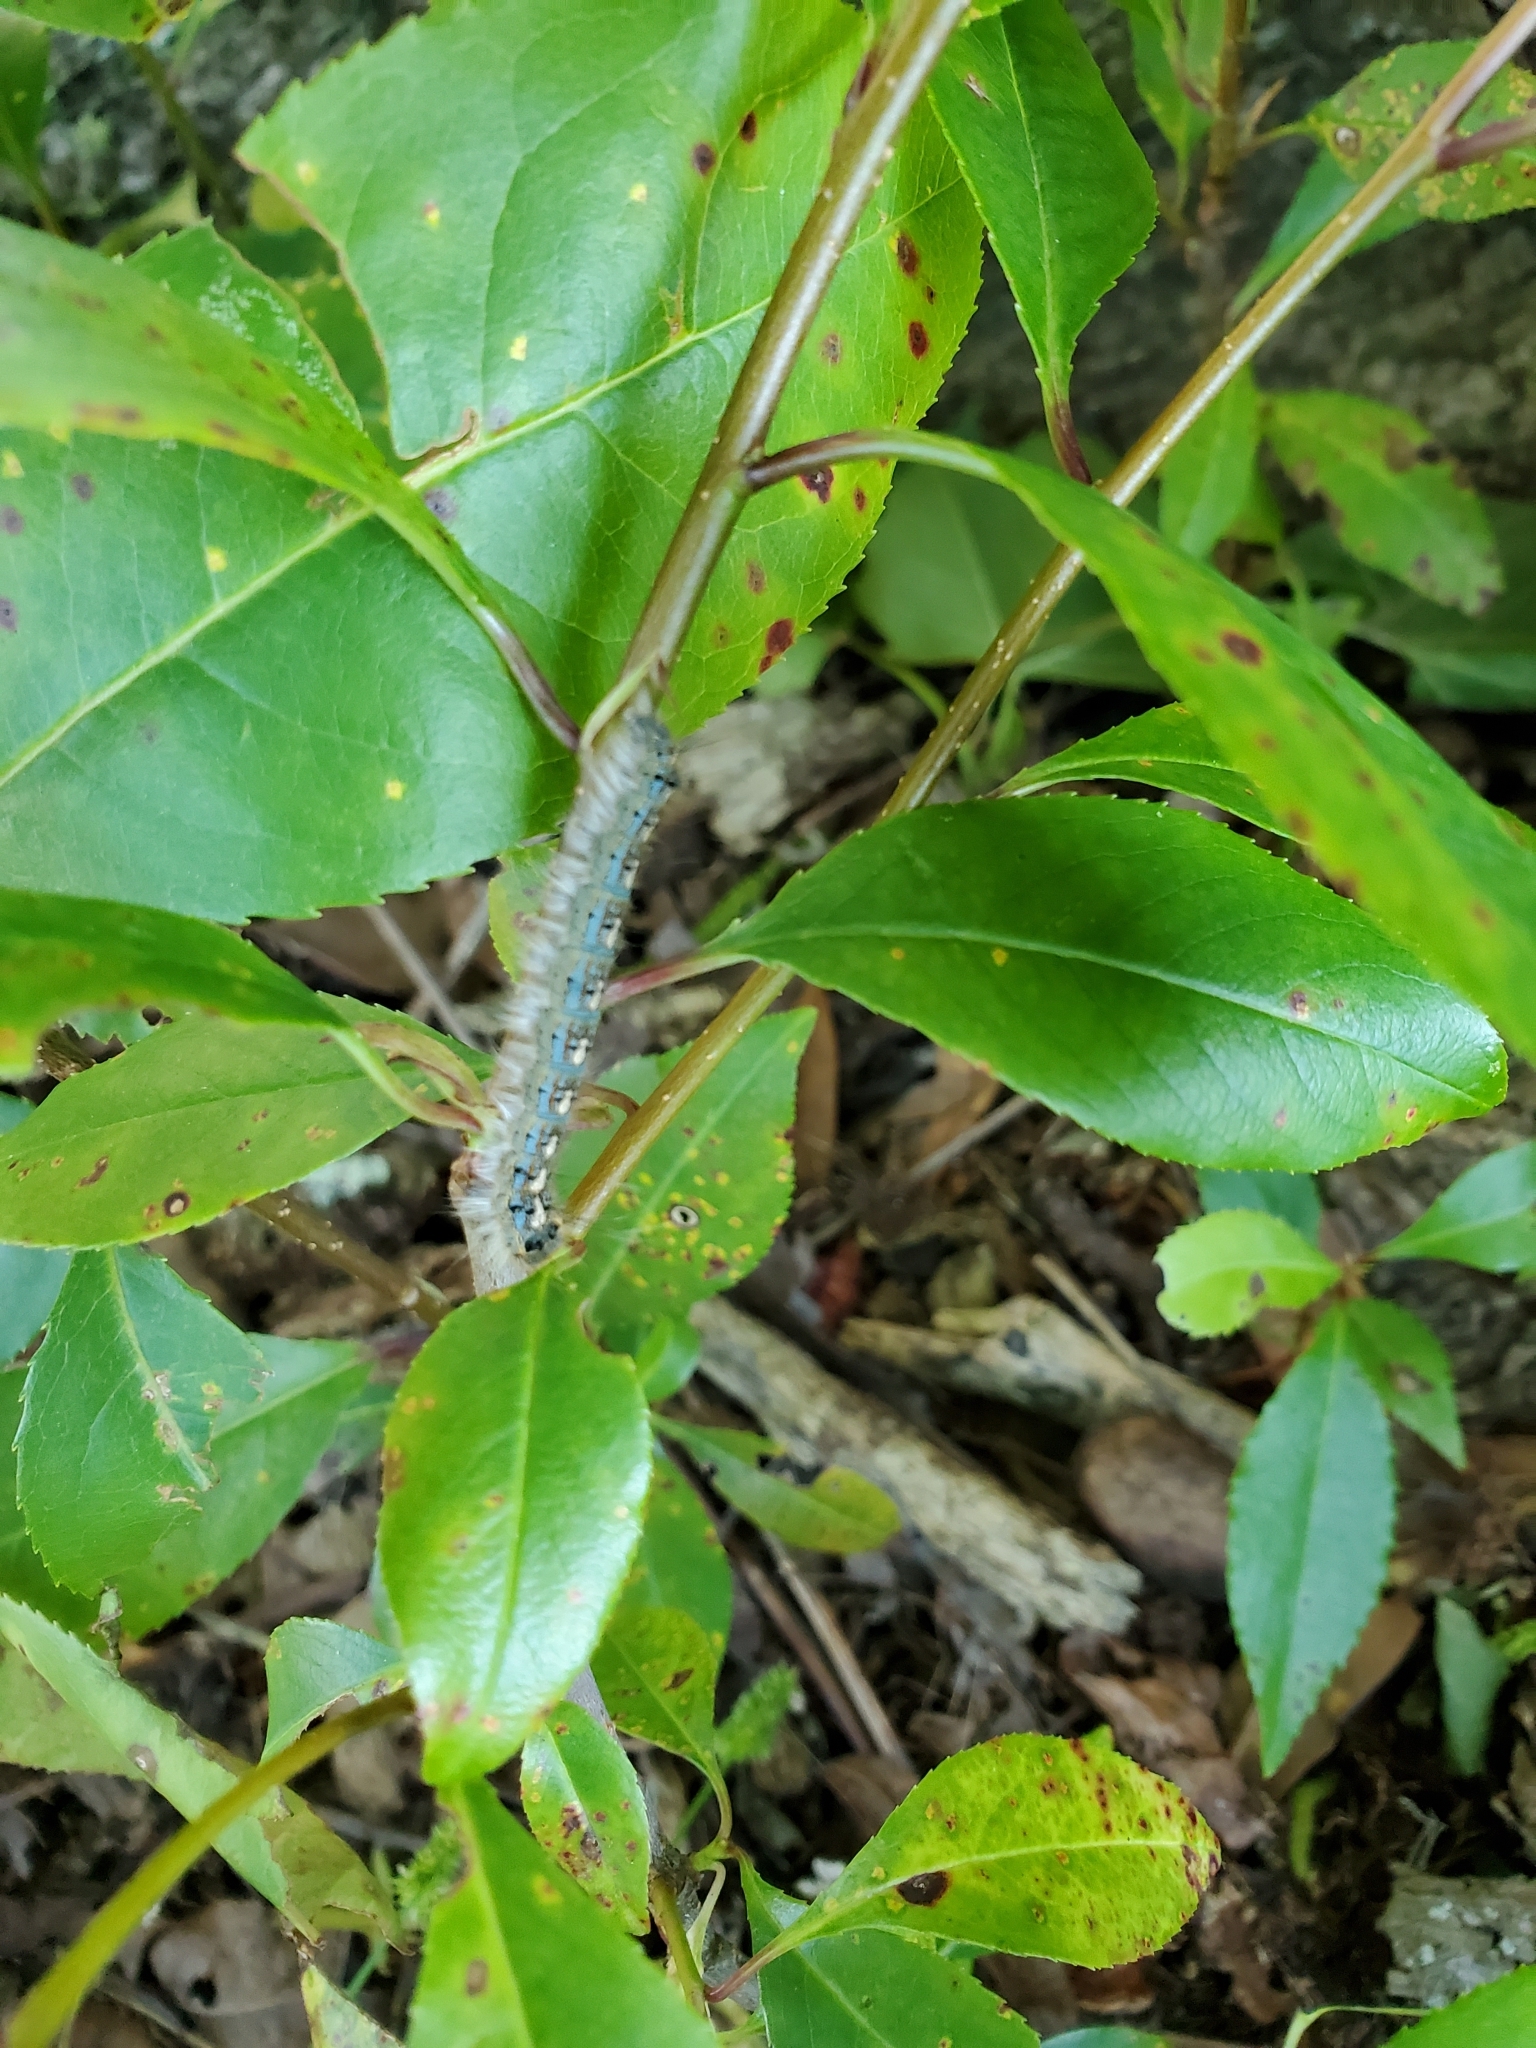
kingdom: Animalia
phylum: Arthropoda
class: Insecta
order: Lepidoptera
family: Lasiocampidae
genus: Malacosoma
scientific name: Malacosoma disstria
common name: Forest tent caterpillar
